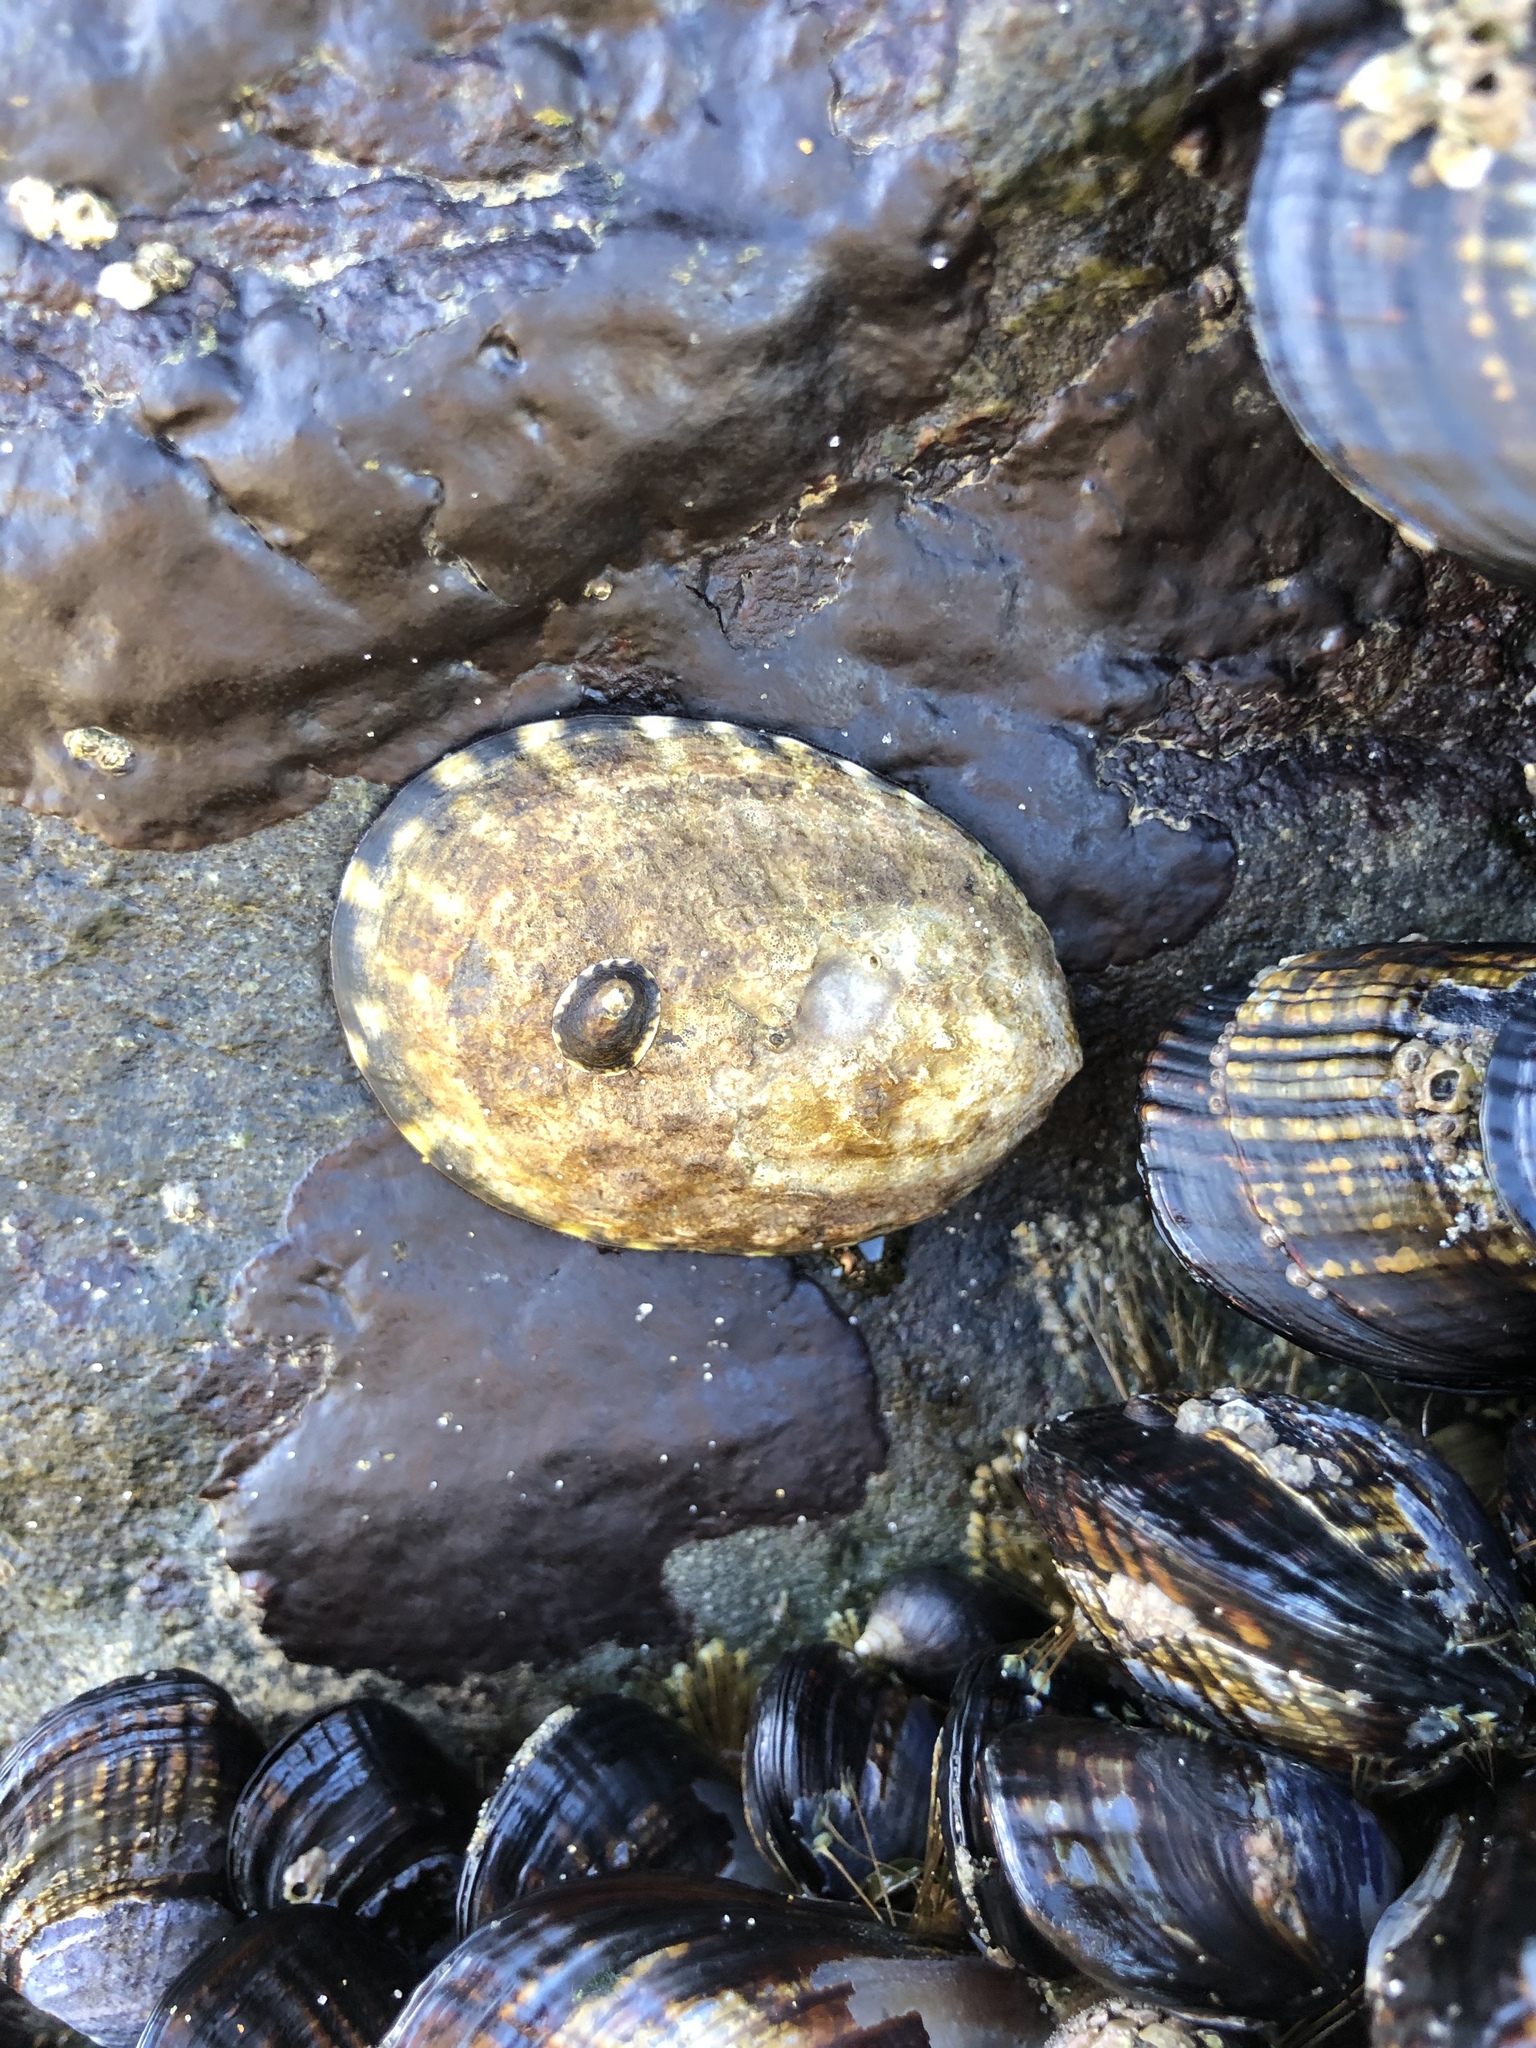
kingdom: Animalia
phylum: Mollusca
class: Gastropoda
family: Lottiidae
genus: Lottia
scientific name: Lottia gigantea
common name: Owl limpet
